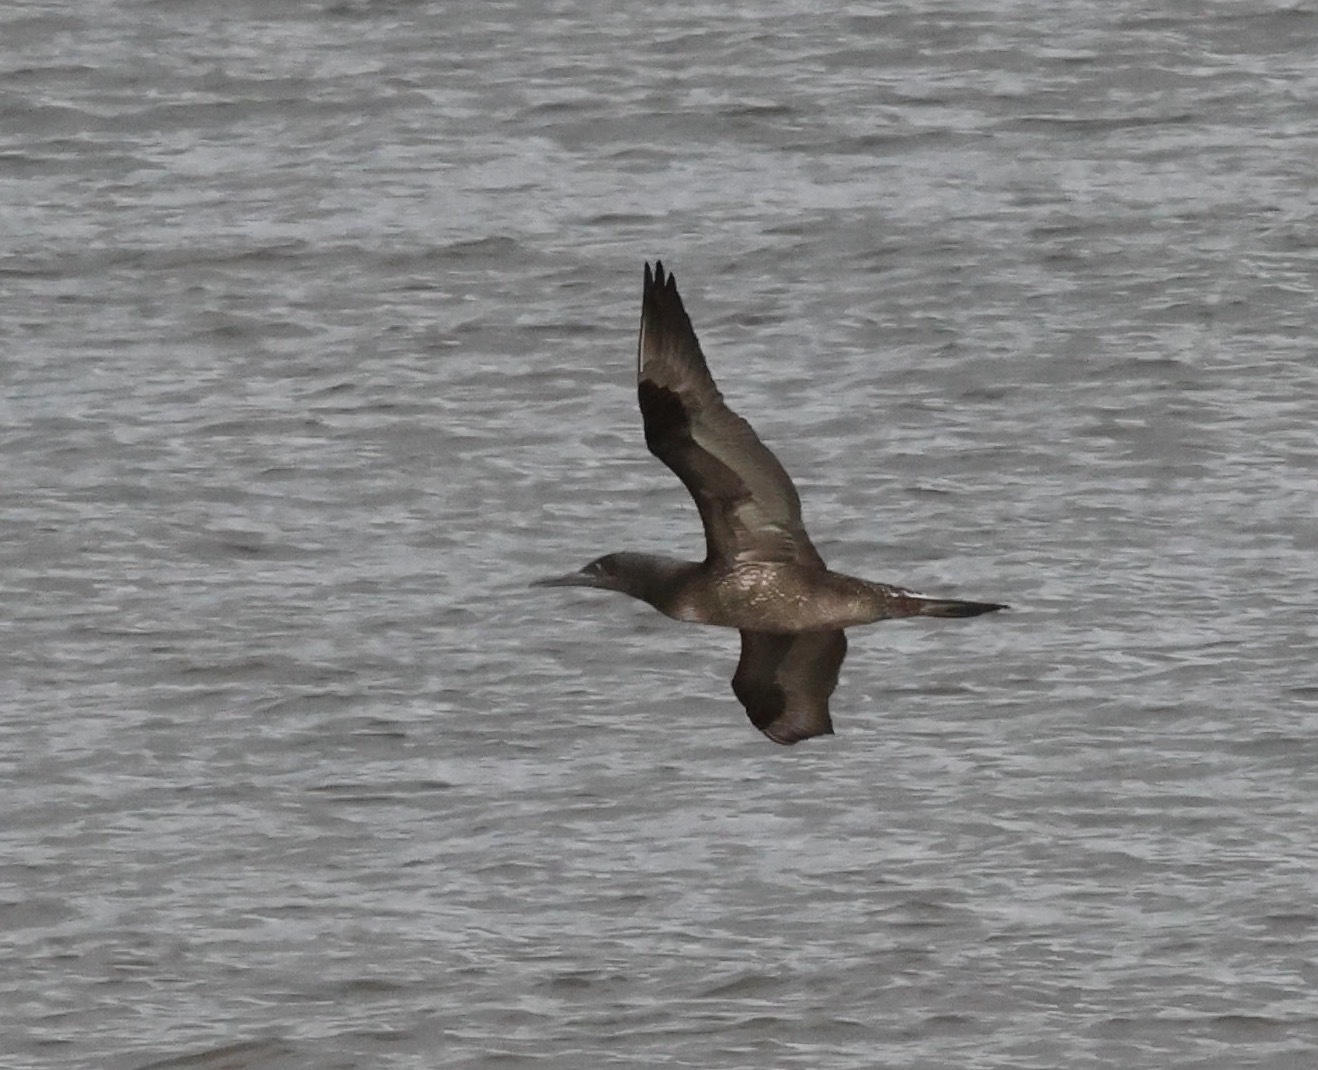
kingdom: Animalia
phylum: Chordata
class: Aves
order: Suliformes
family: Sulidae
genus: Morus
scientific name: Morus bassanus
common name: Northern gannet
